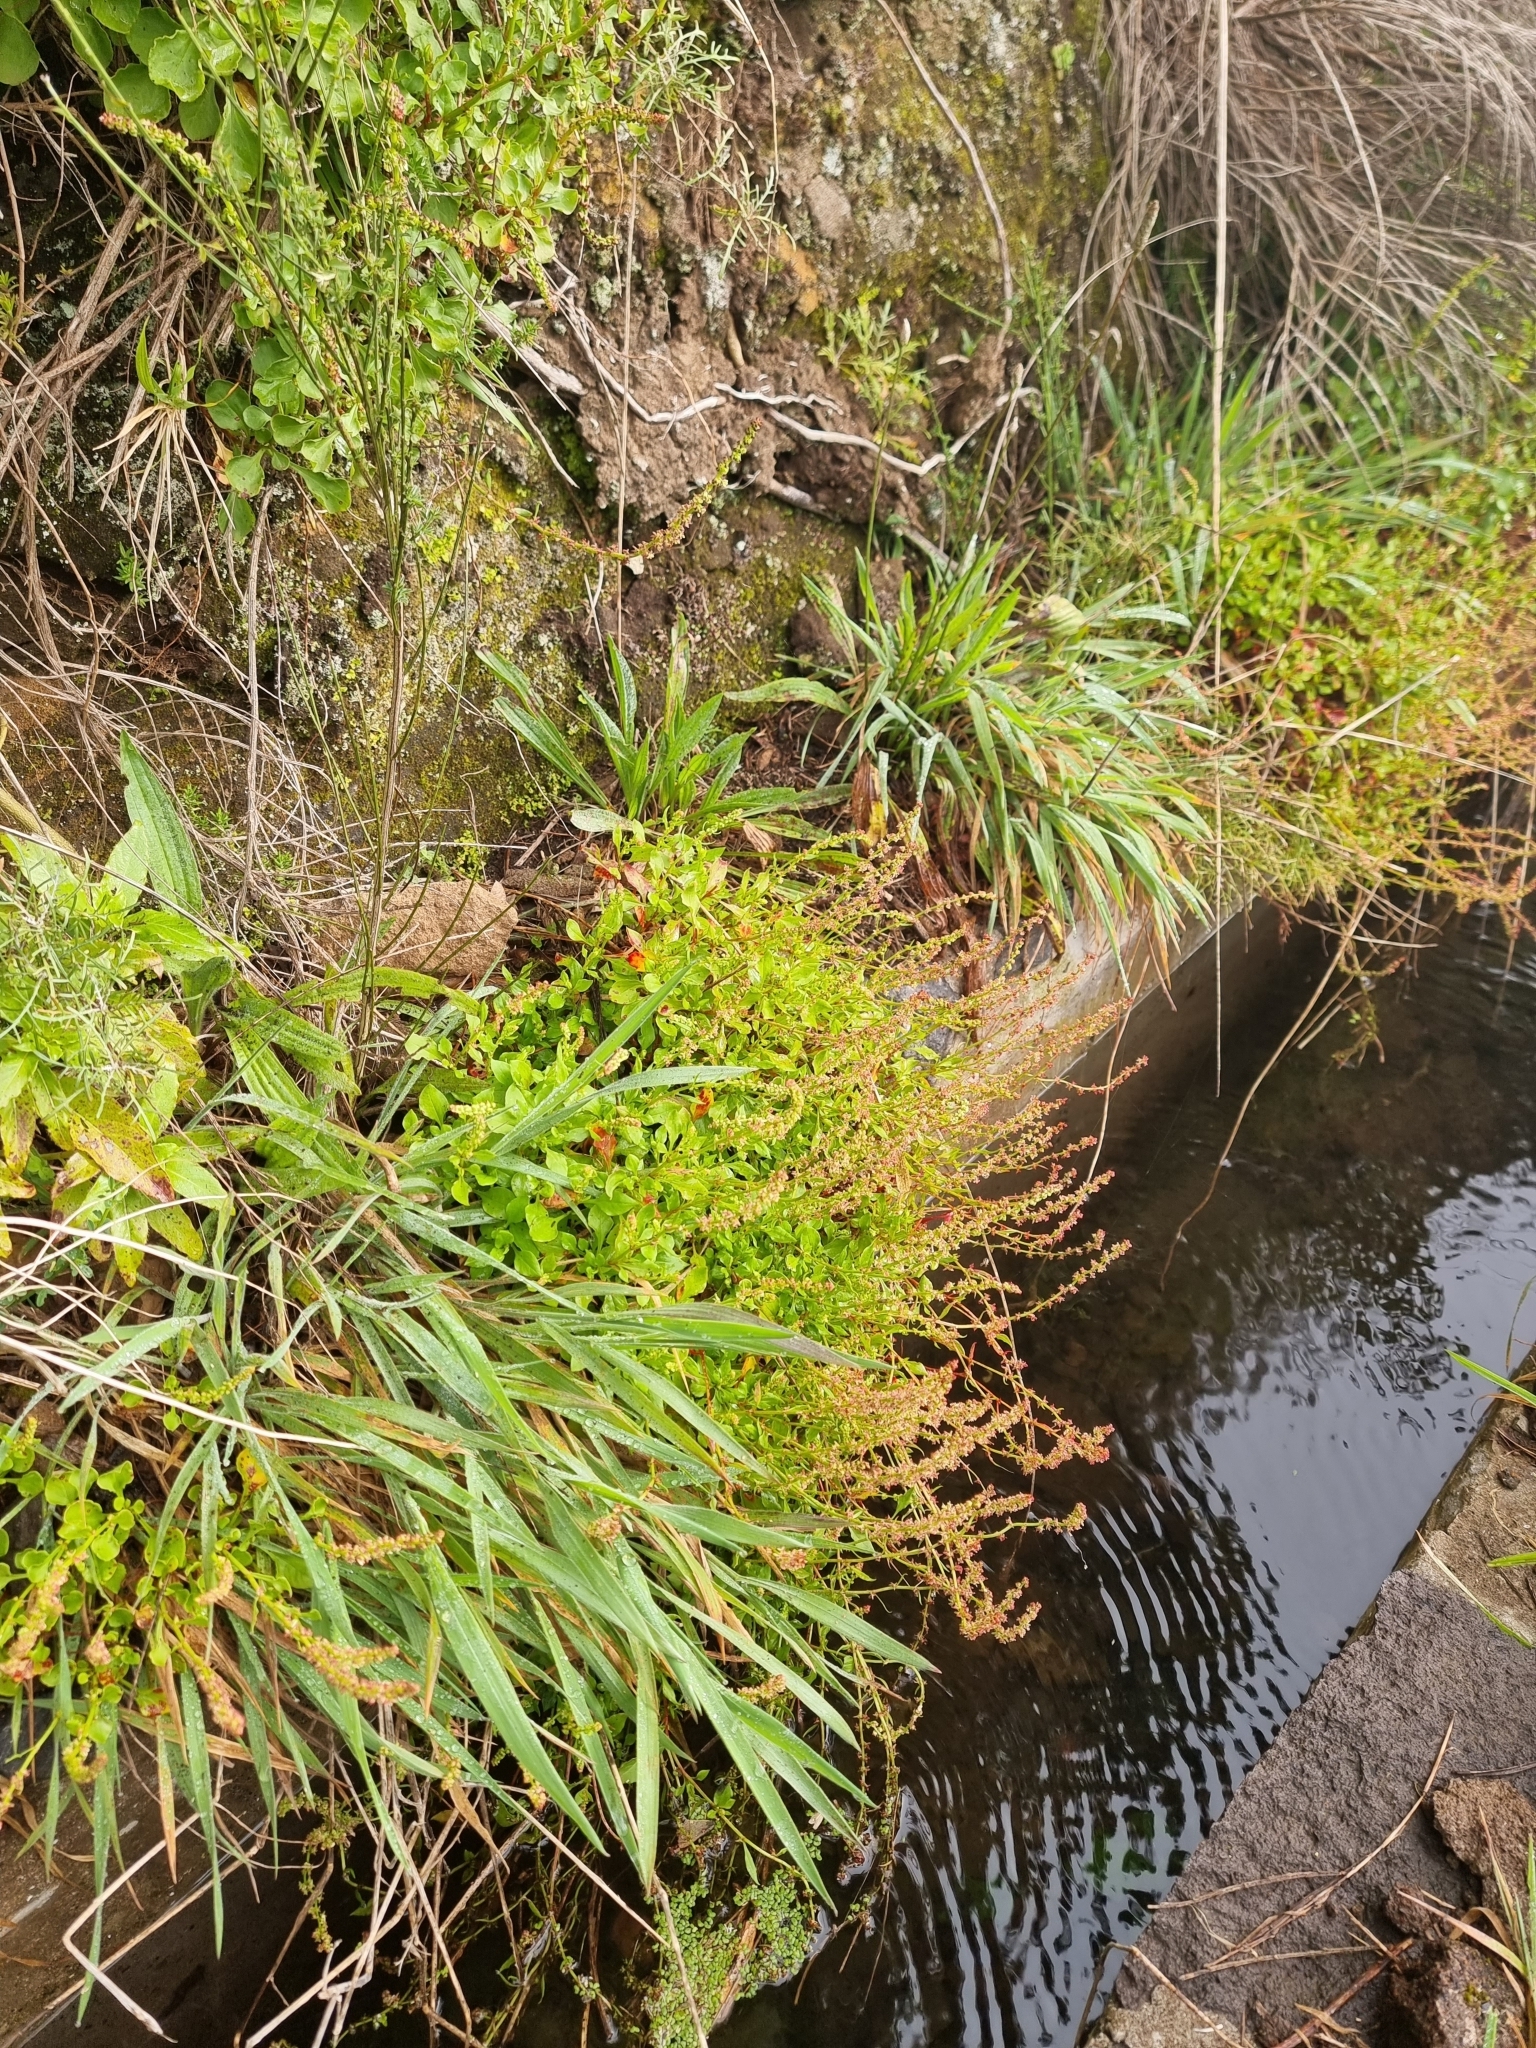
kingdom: Plantae
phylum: Tracheophyta
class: Magnoliopsida
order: Caryophyllales
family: Polygonaceae
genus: Rumex
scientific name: Rumex bucephalophorus
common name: Red dock
